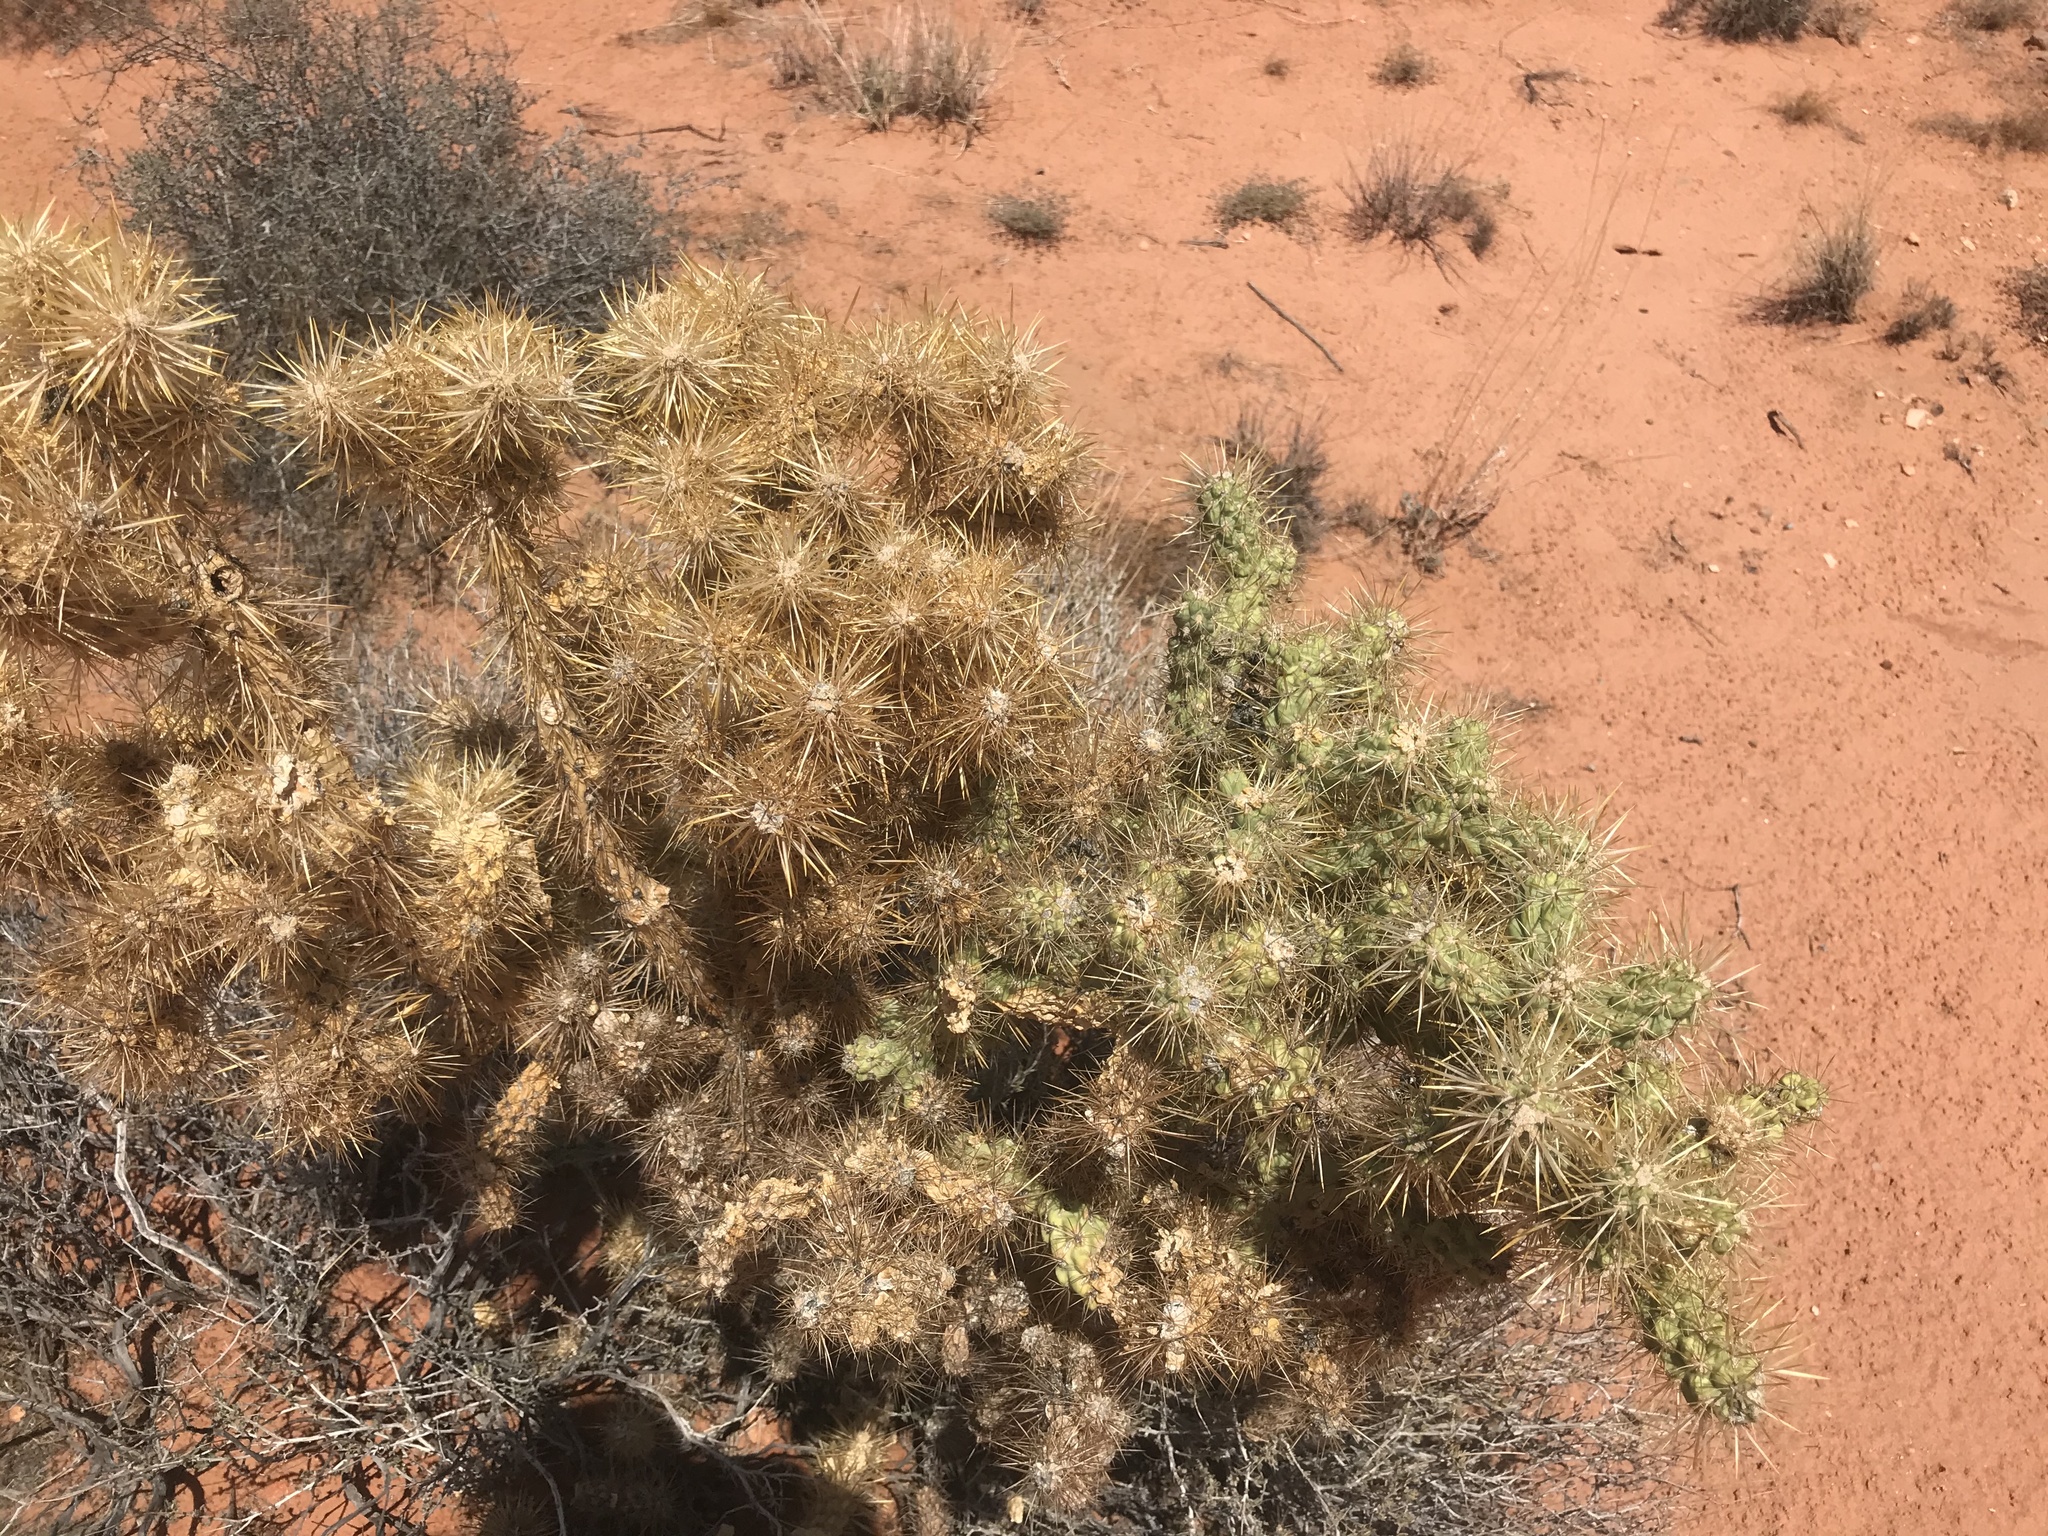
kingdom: Plantae
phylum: Tracheophyta
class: Magnoliopsida
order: Caryophyllales
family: Cactaceae
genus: Cylindropuntia
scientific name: Cylindropuntia echinocarpa
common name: Ground cholla
